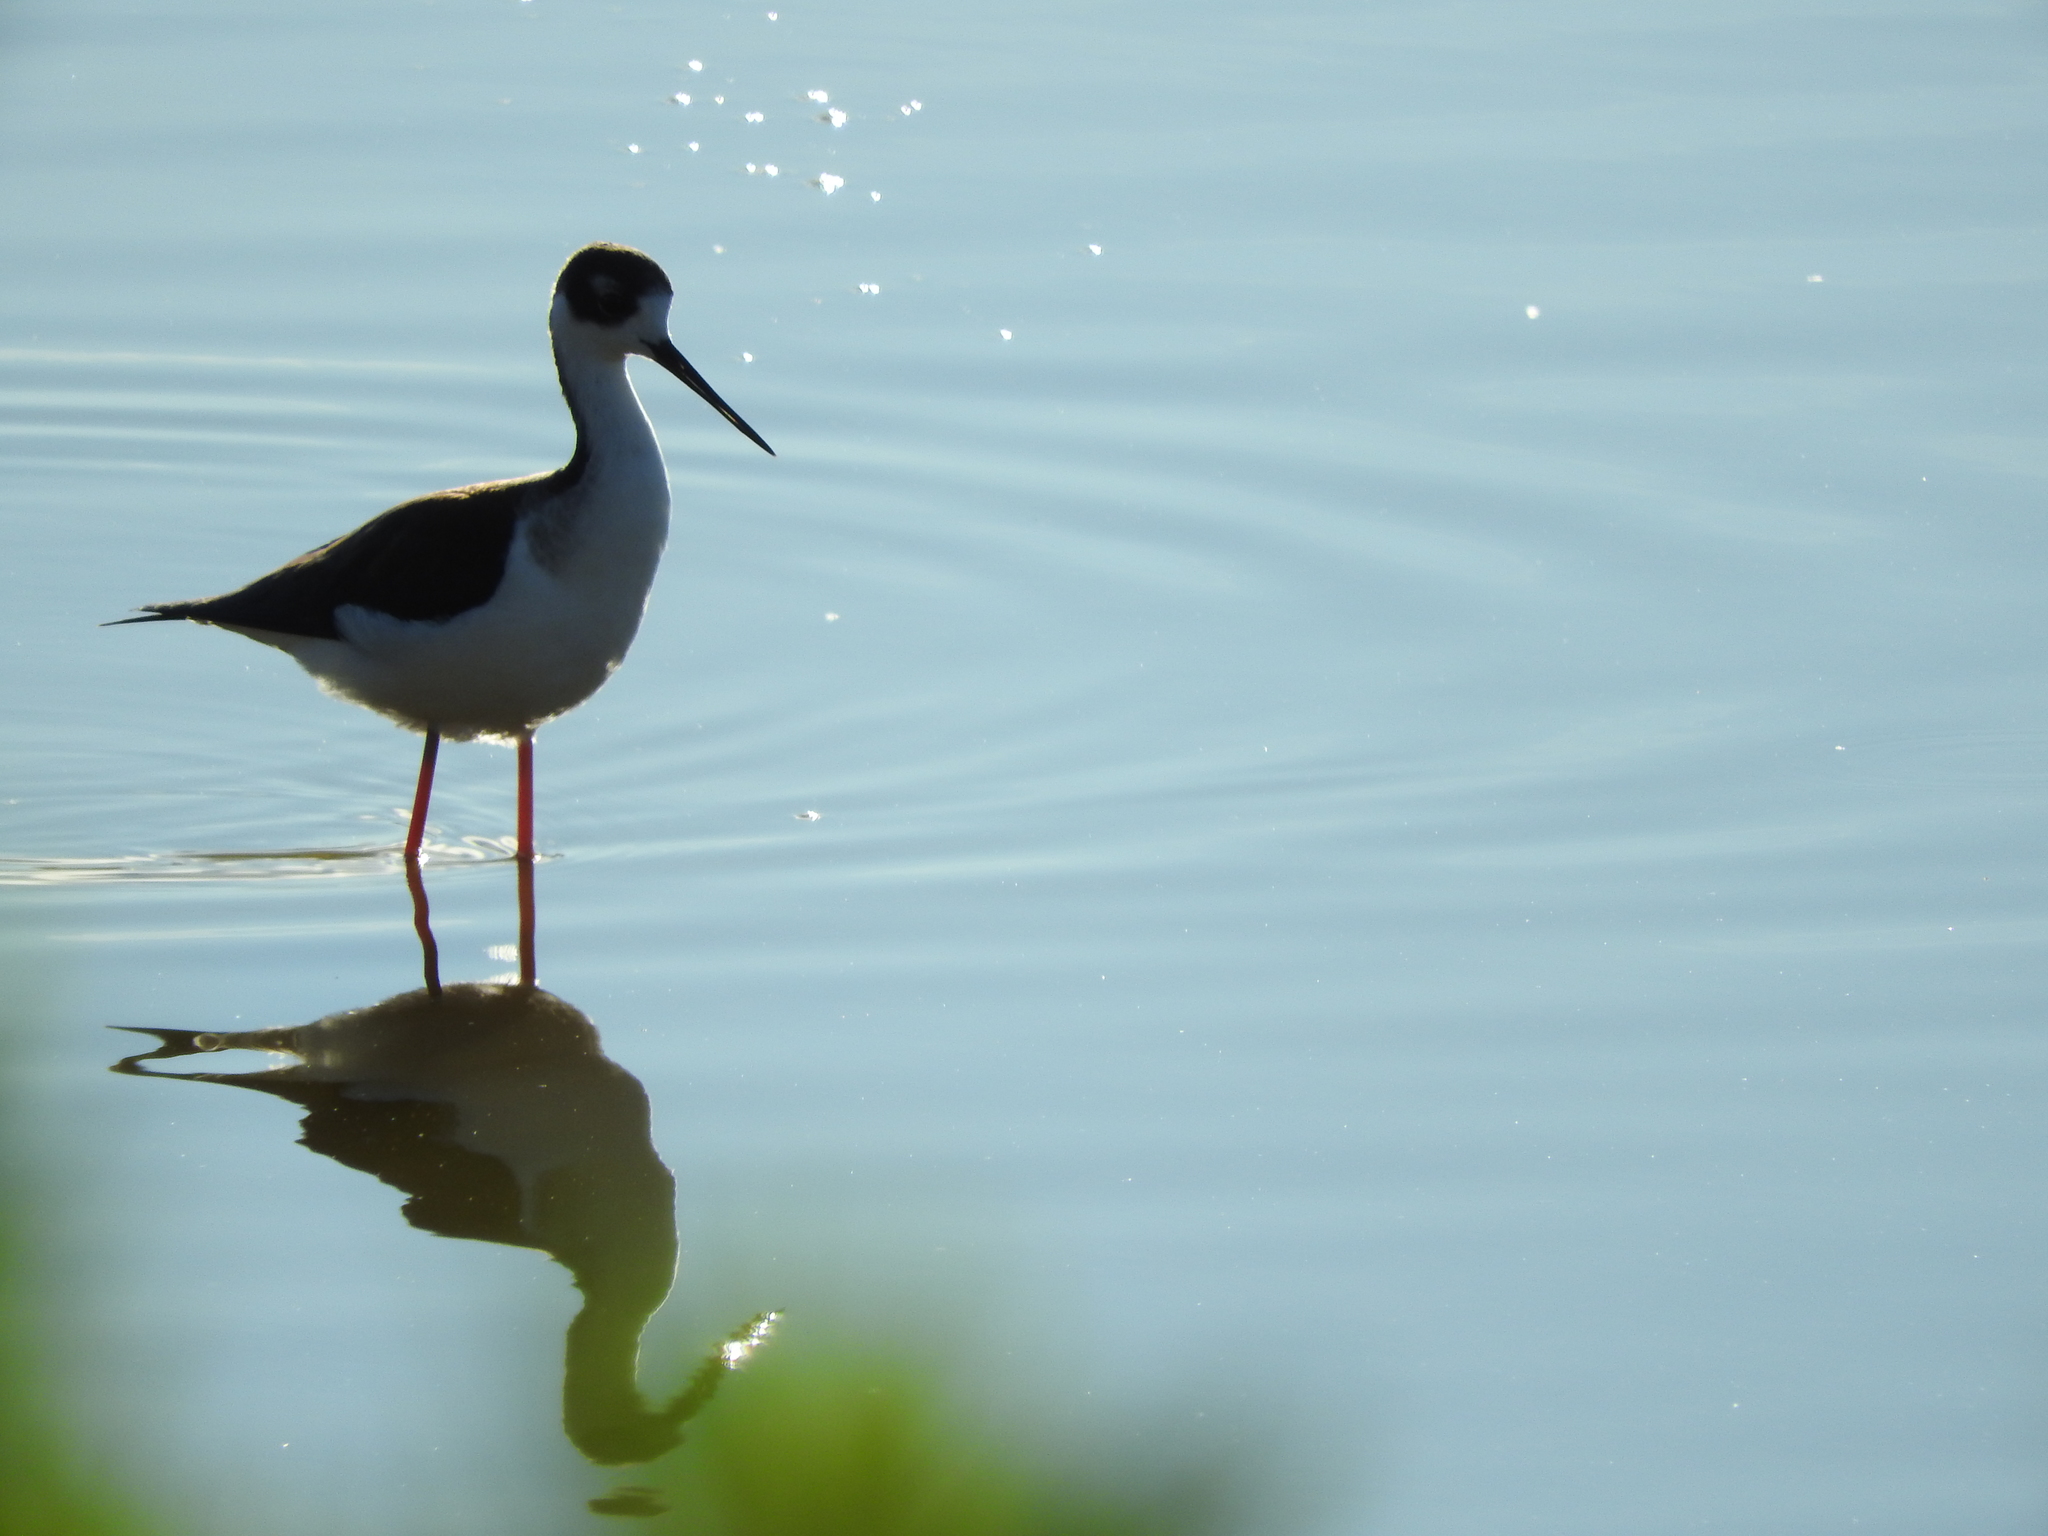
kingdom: Animalia
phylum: Chordata
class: Aves
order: Charadriiformes
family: Recurvirostridae
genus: Himantopus
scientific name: Himantopus mexicanus
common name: Black-necked stilt
